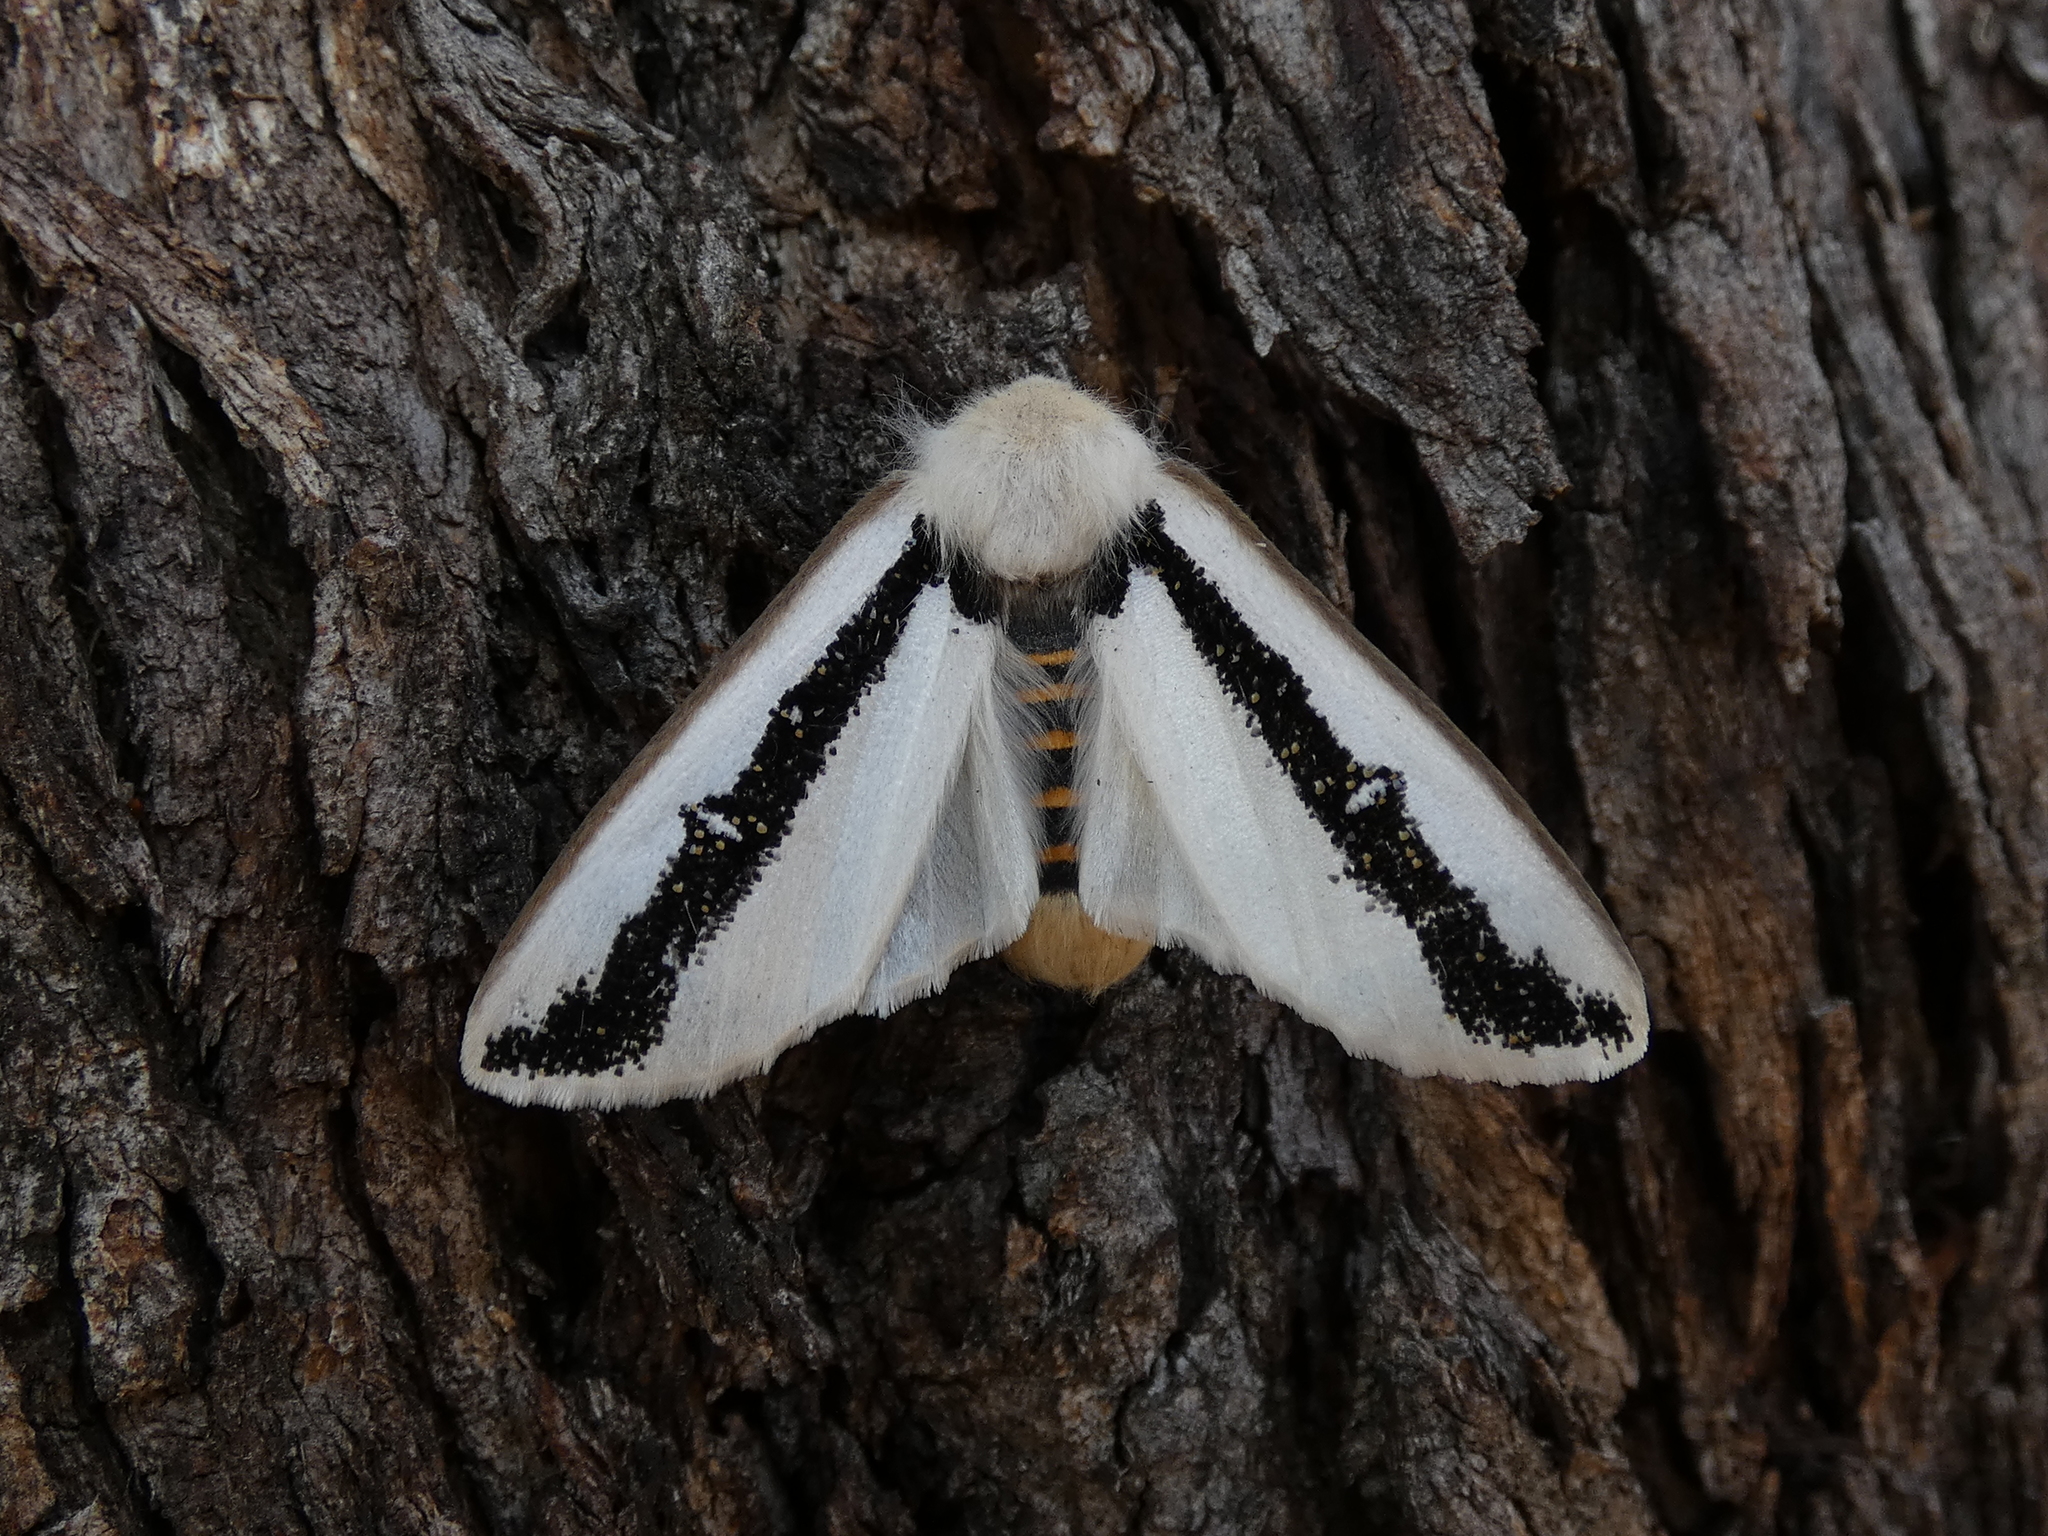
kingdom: Animalia
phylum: Arthropoda
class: Insecta
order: Lepidoptera
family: Oenosandridae
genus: Oenosandra
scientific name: Oenosandra boisduvalii
